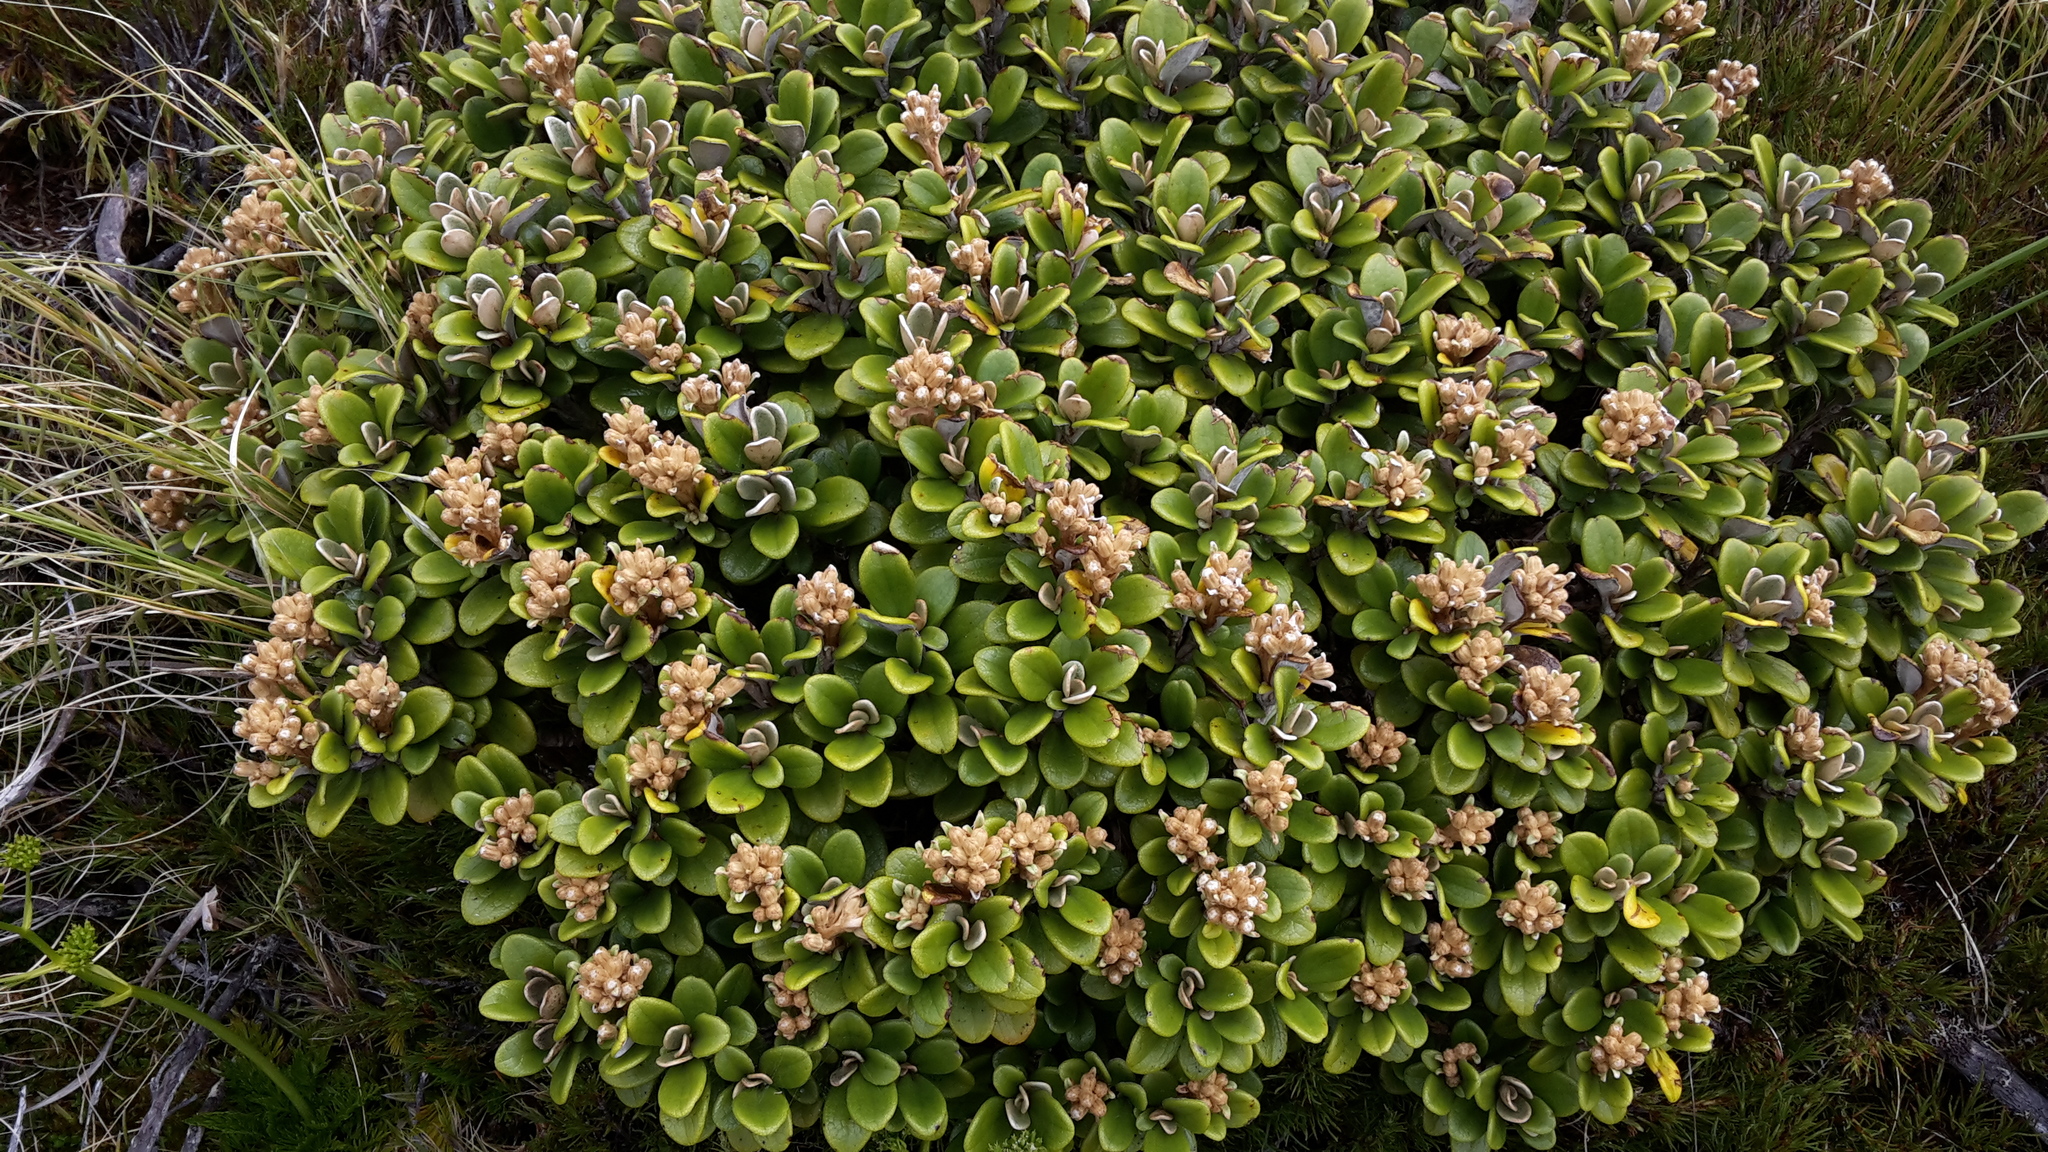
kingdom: Plantae
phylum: Tracheophyta
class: Magnoliopsida
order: Asterales
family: Asteraceae
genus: Brachyglottis
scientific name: Brachyglottis bidwillii
